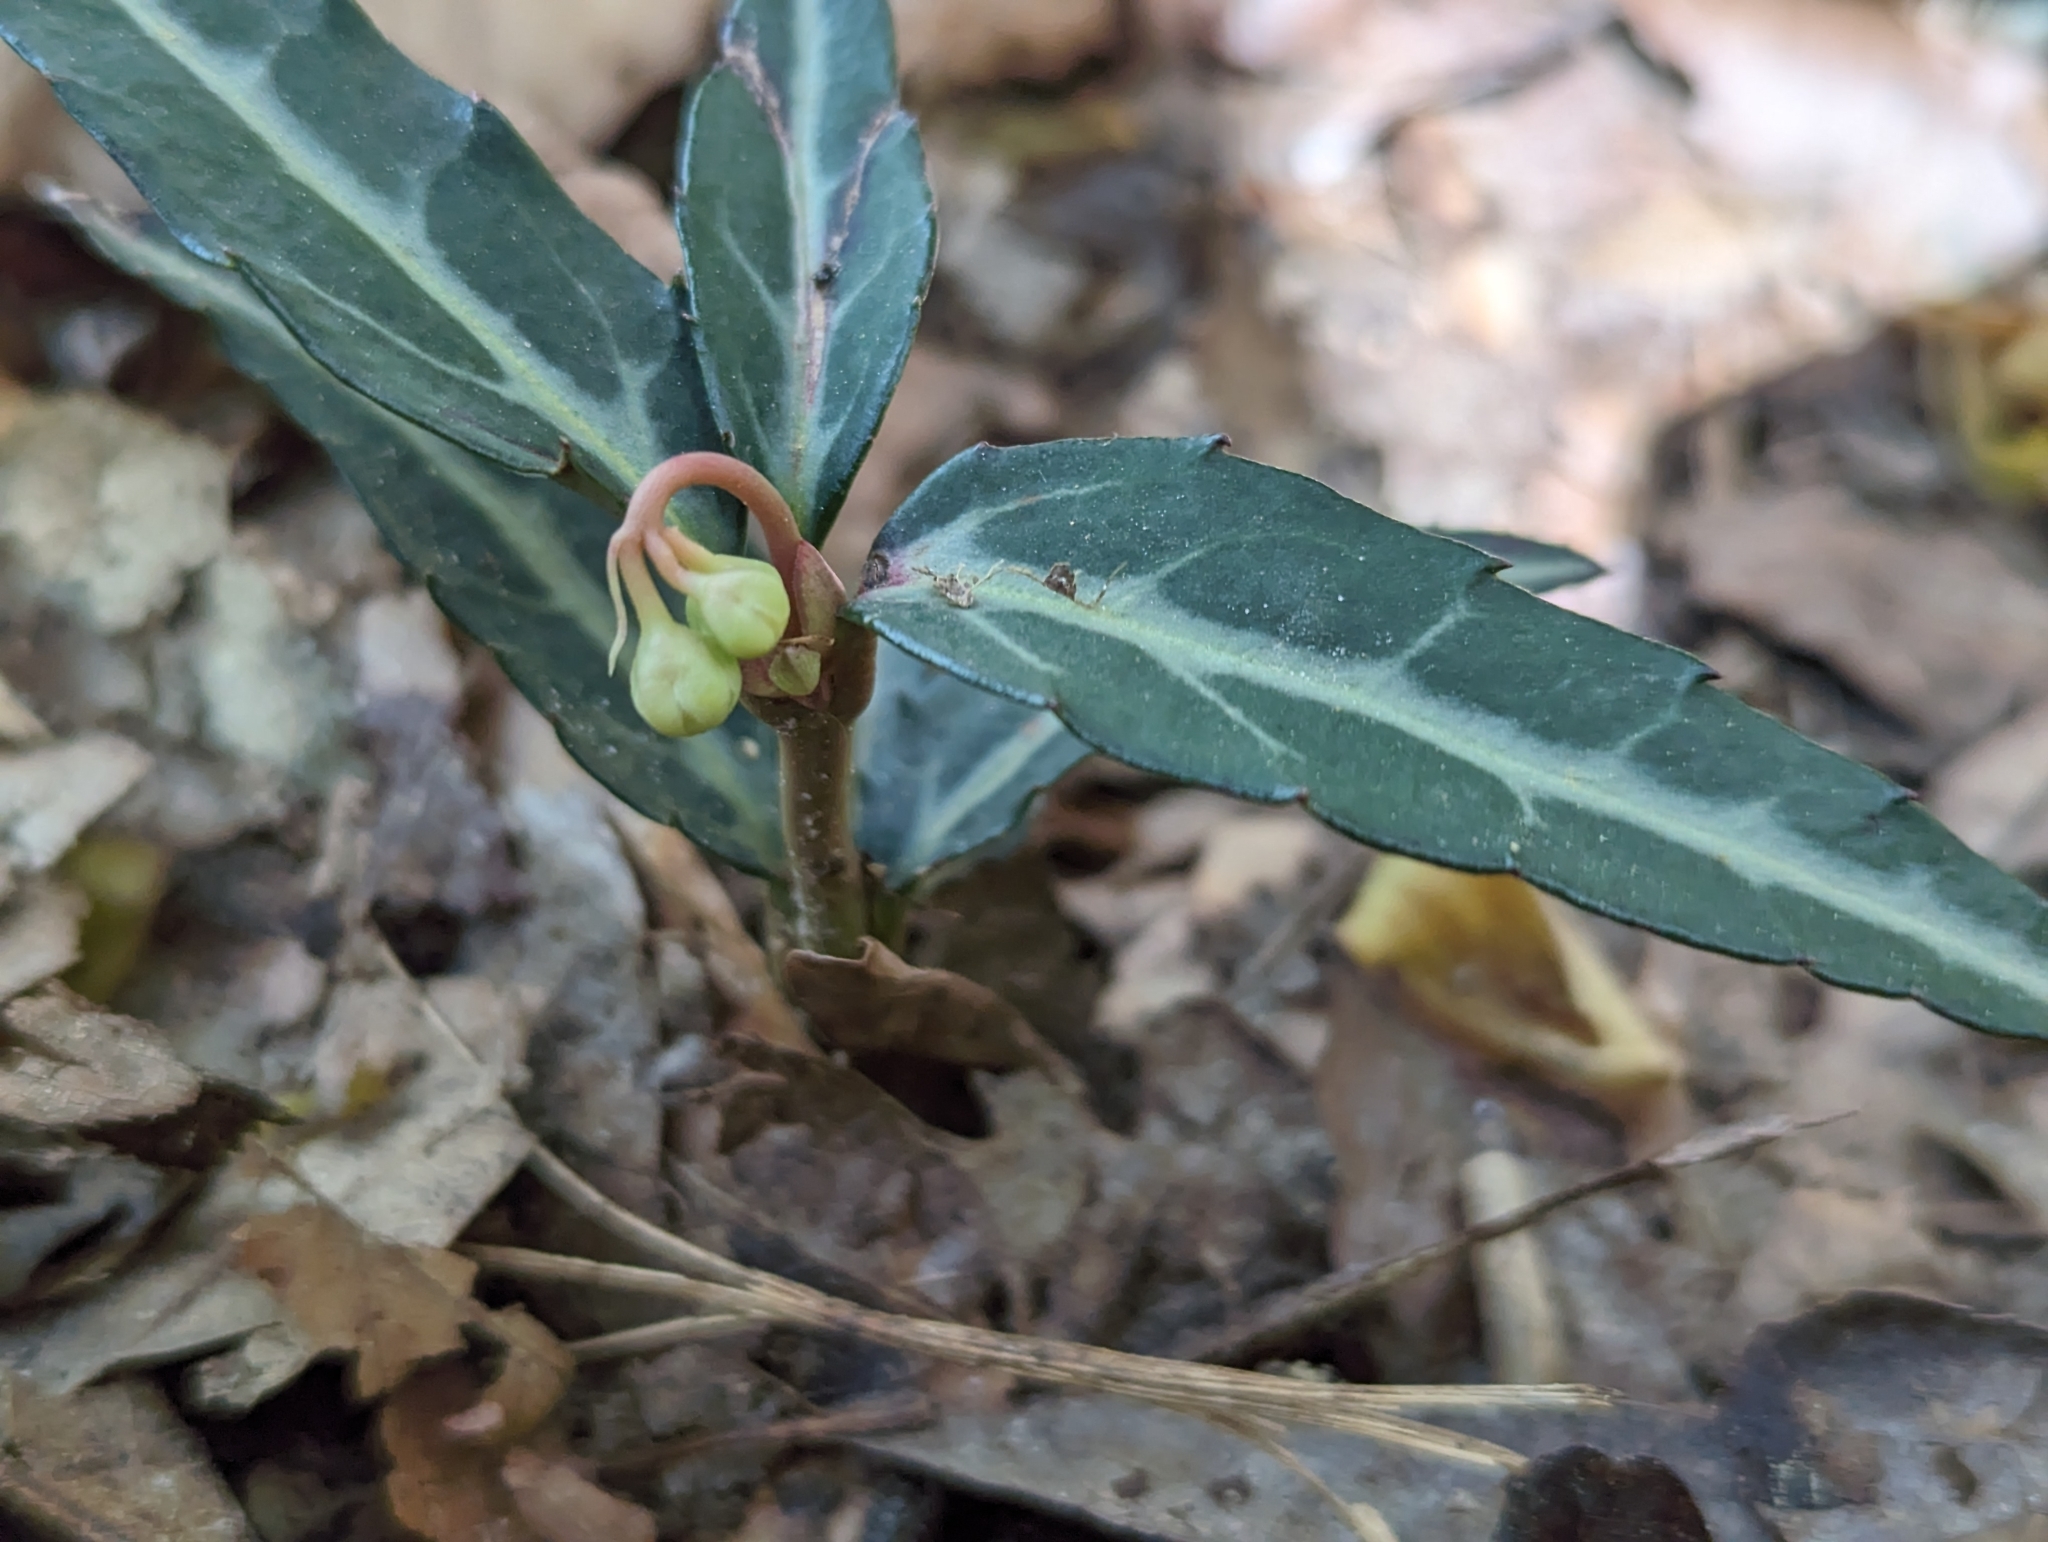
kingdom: Plantae
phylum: Tracheophyta
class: Magnoliopsida
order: Ericales
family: Ericaceae
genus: Chimaphila
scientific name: Chimaphila maculata
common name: Spotted pipsissewa
